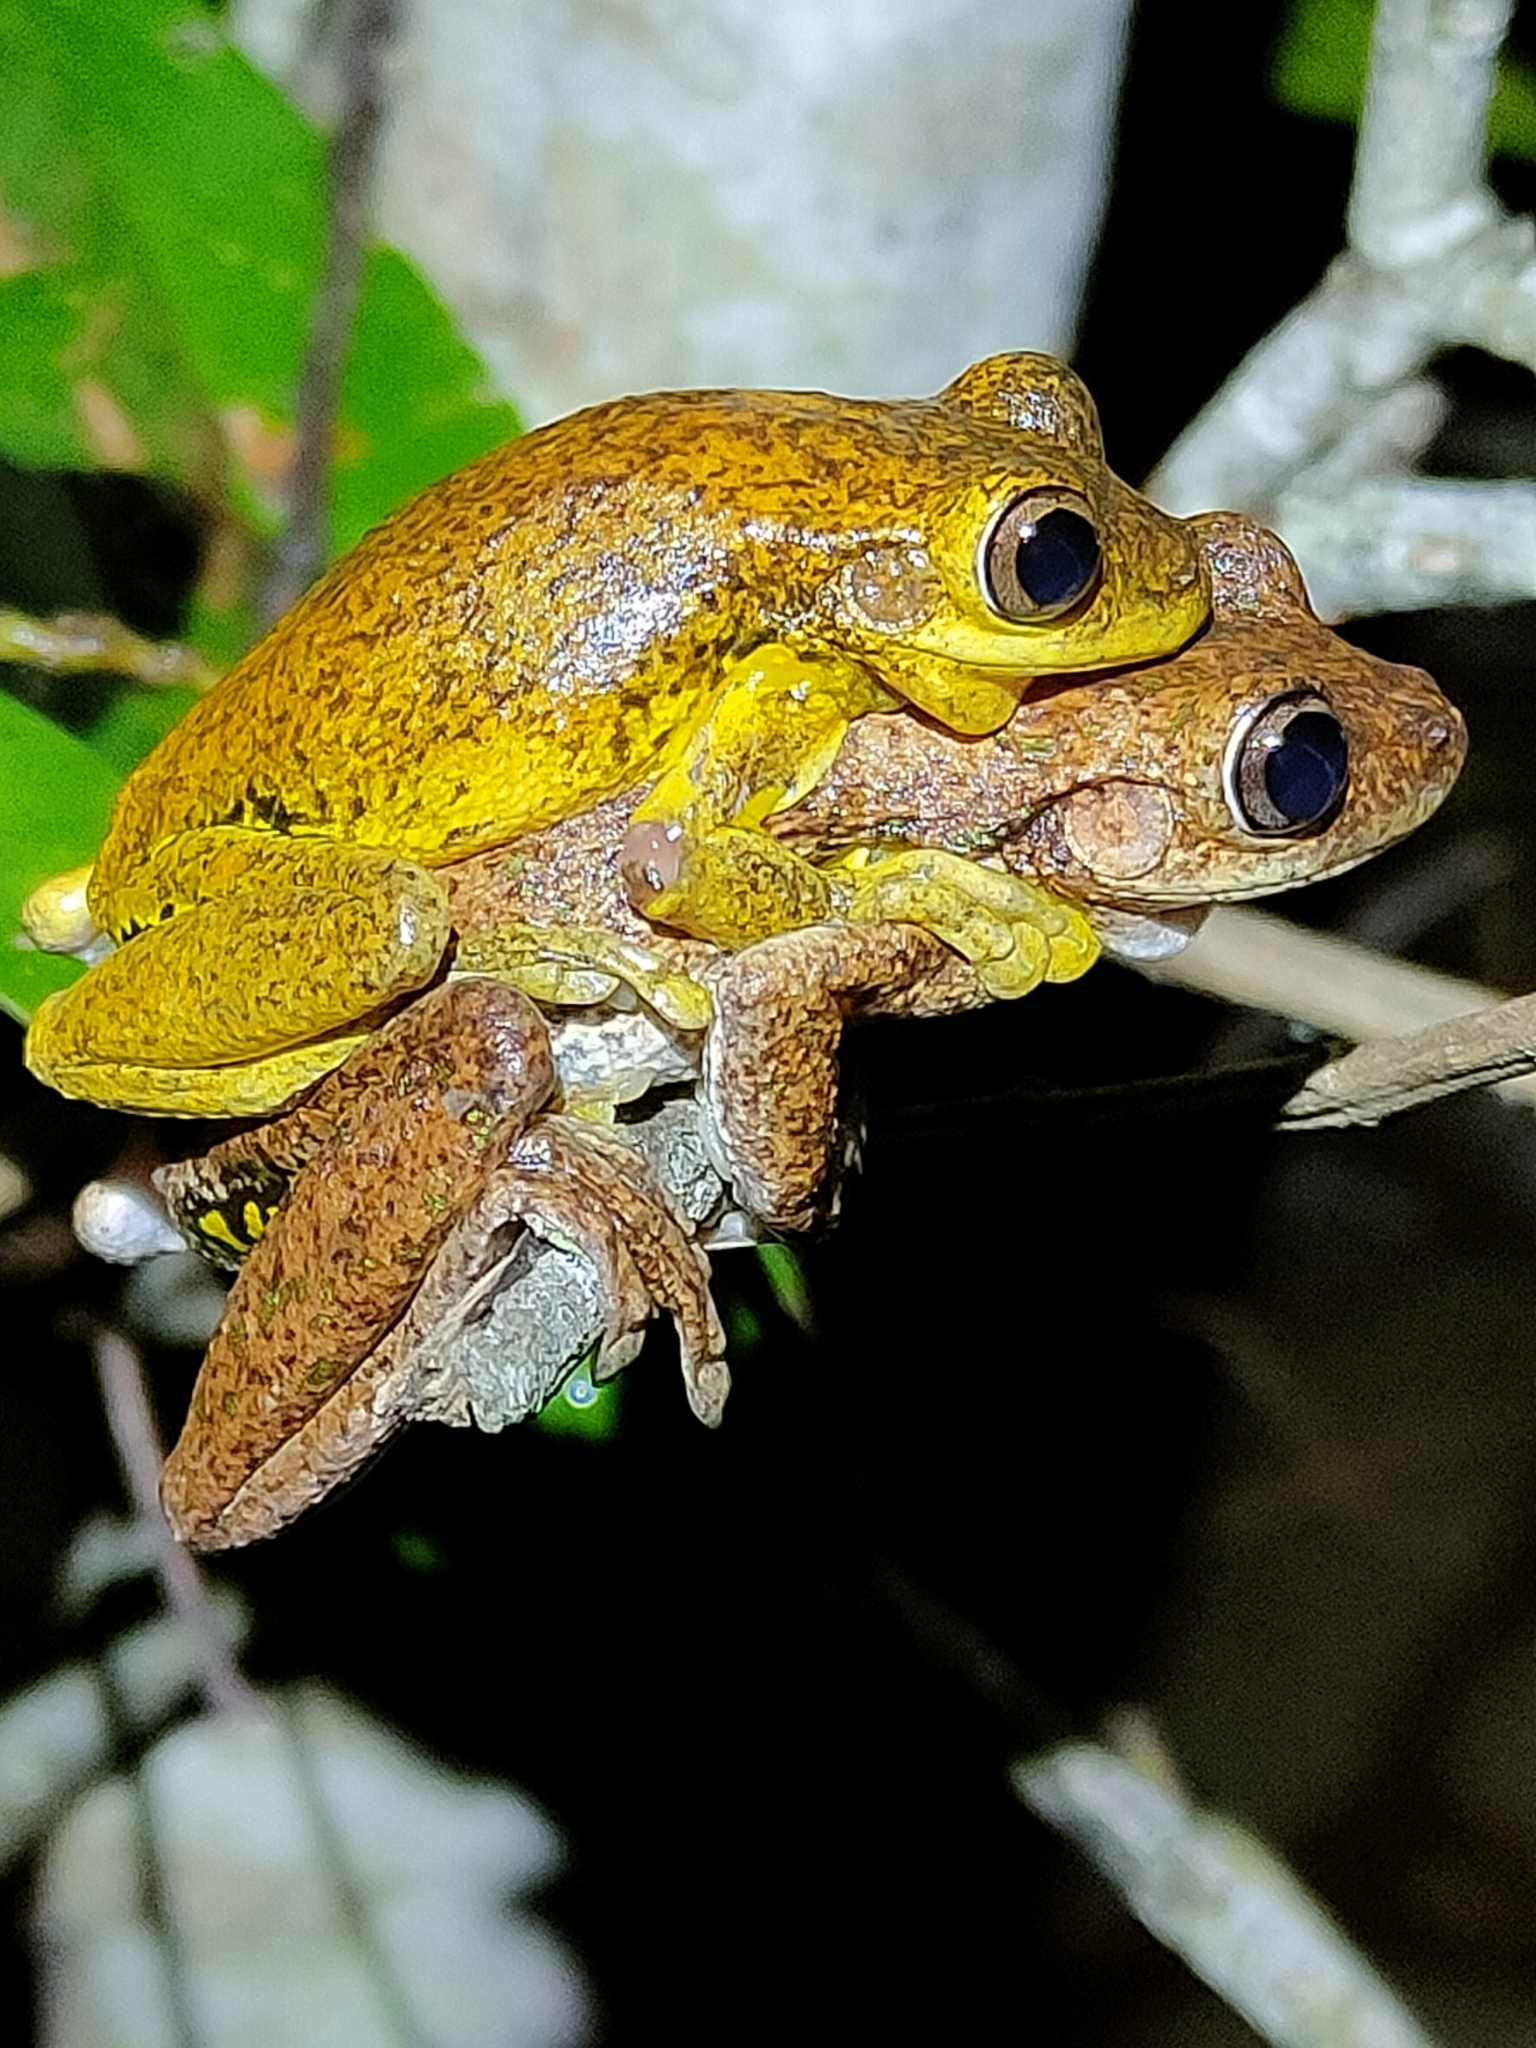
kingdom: Animalia
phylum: Chordata
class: Amphibia
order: Anura
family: Pelodryadidae
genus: Litoria
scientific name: Litoria tyleri
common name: Laughing tree frog
